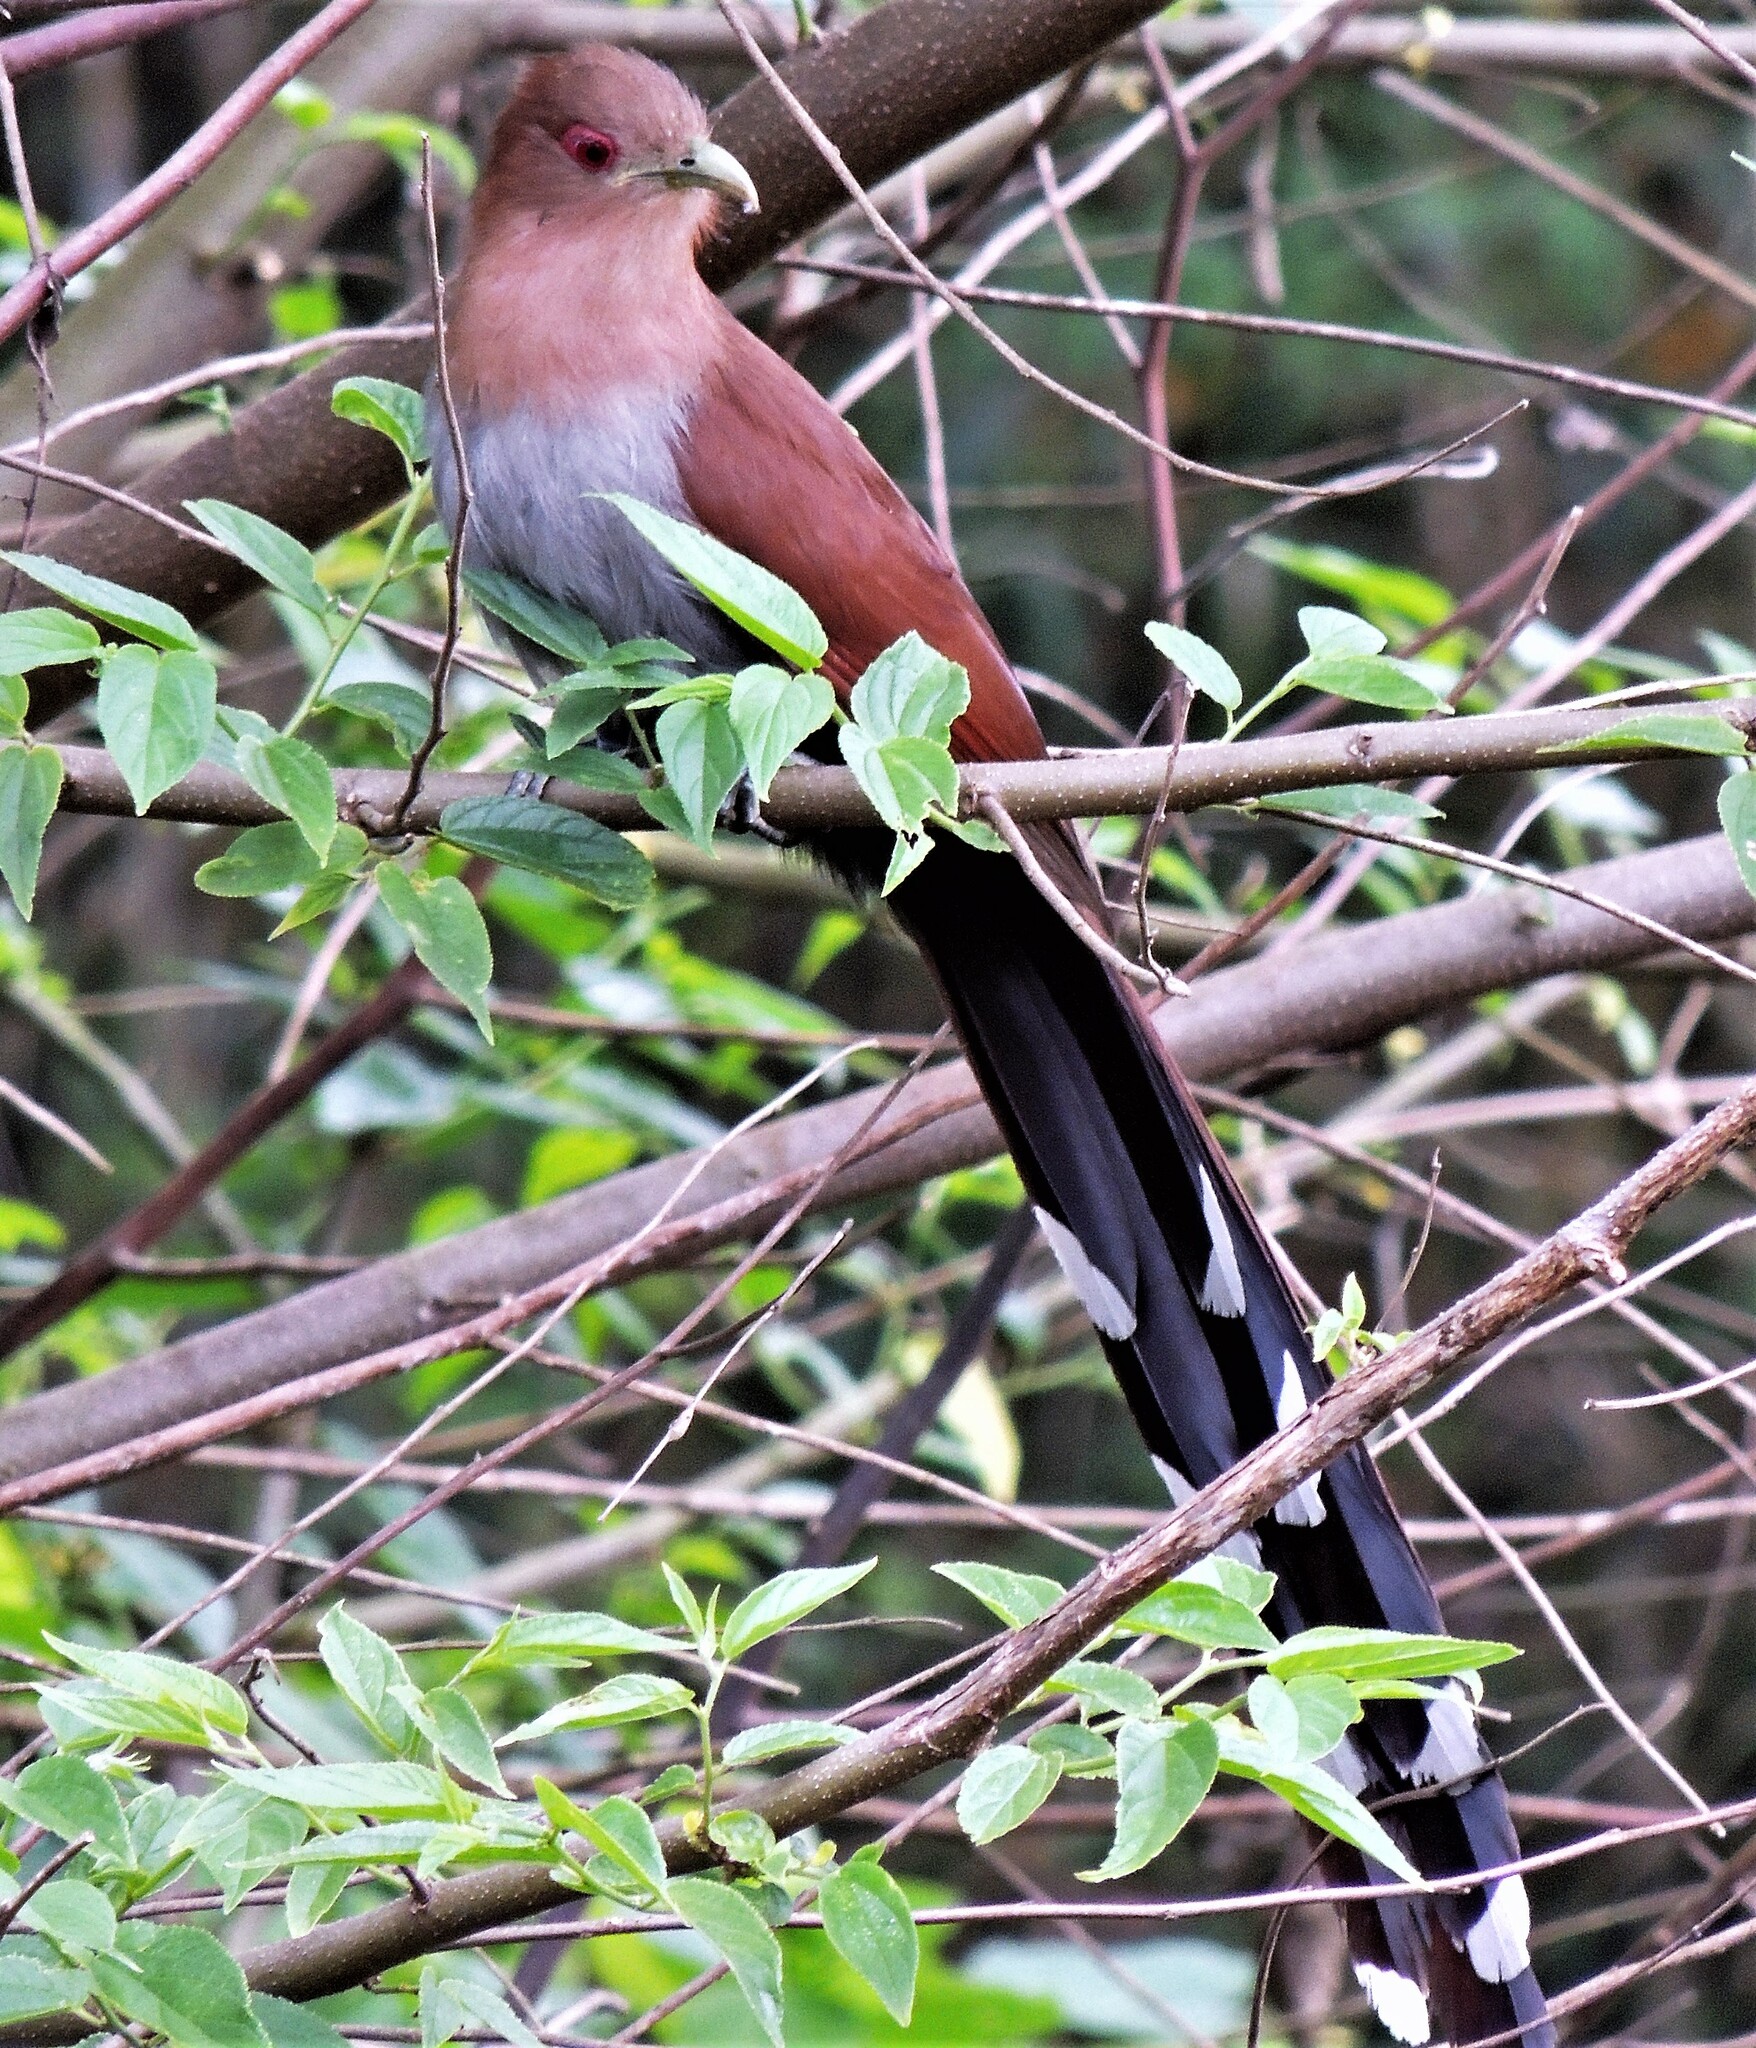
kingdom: Animalia
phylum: Chordata
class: Aves
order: Cuculiformes
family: Cuculidae
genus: Piaya
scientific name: Piaya cayana
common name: Squirrel cuckoo
